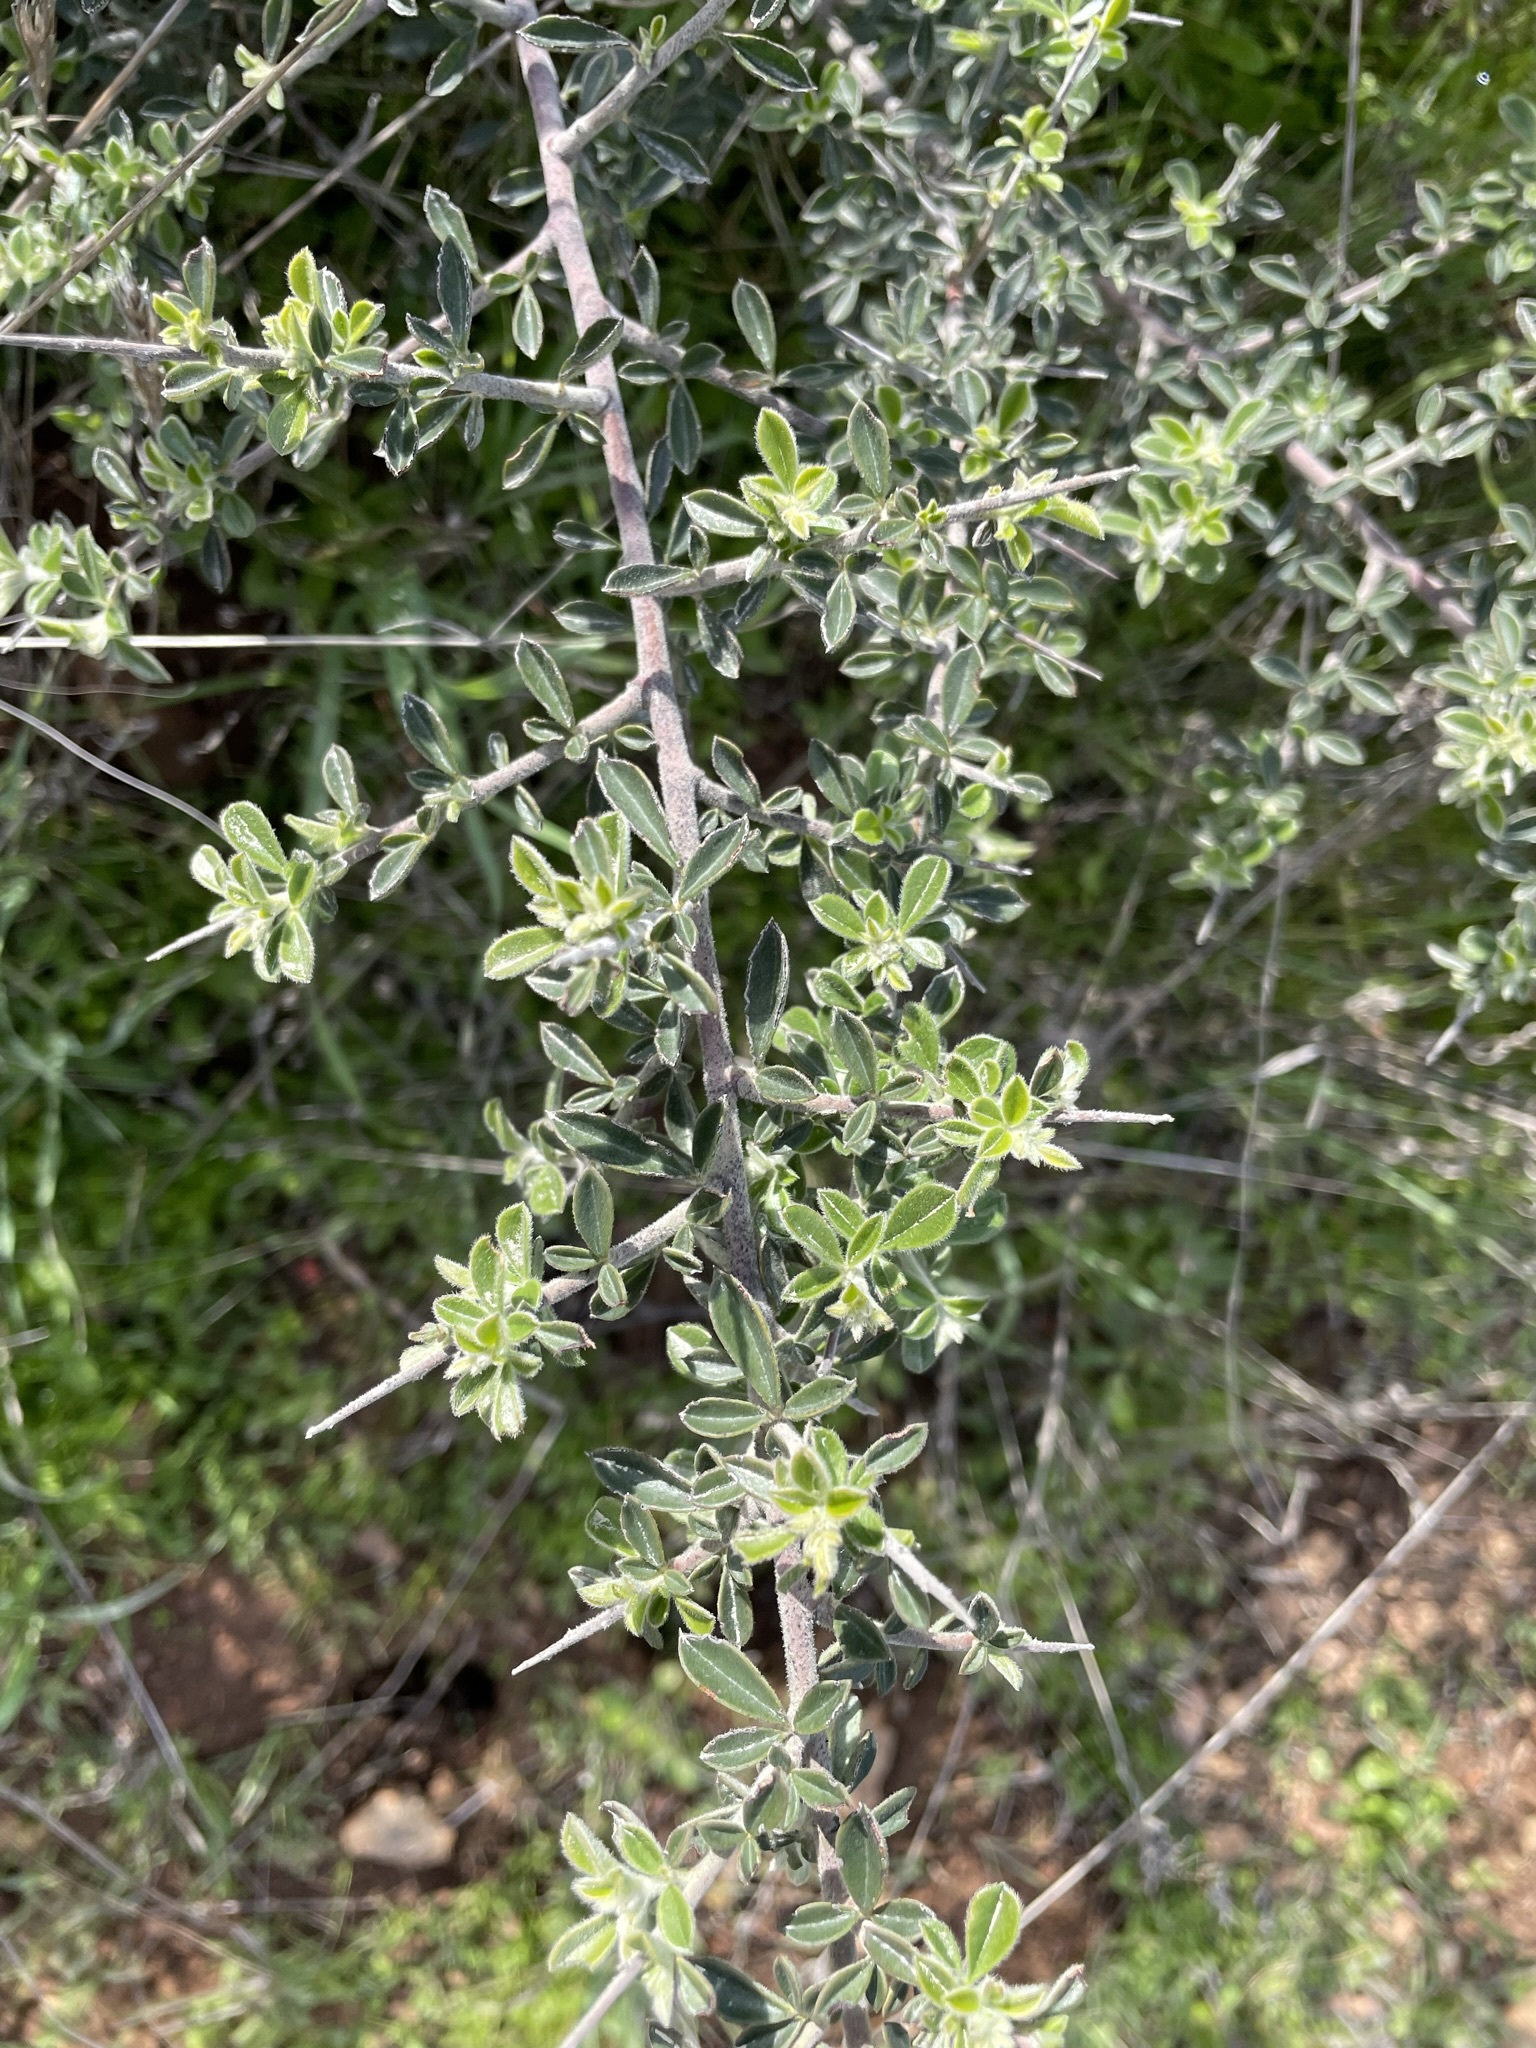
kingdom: Plantae
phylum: Tracheophyta
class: Magnoliopsida
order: Fabales
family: Fabaceae
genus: Pickeringia
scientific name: Pickeringia montana
